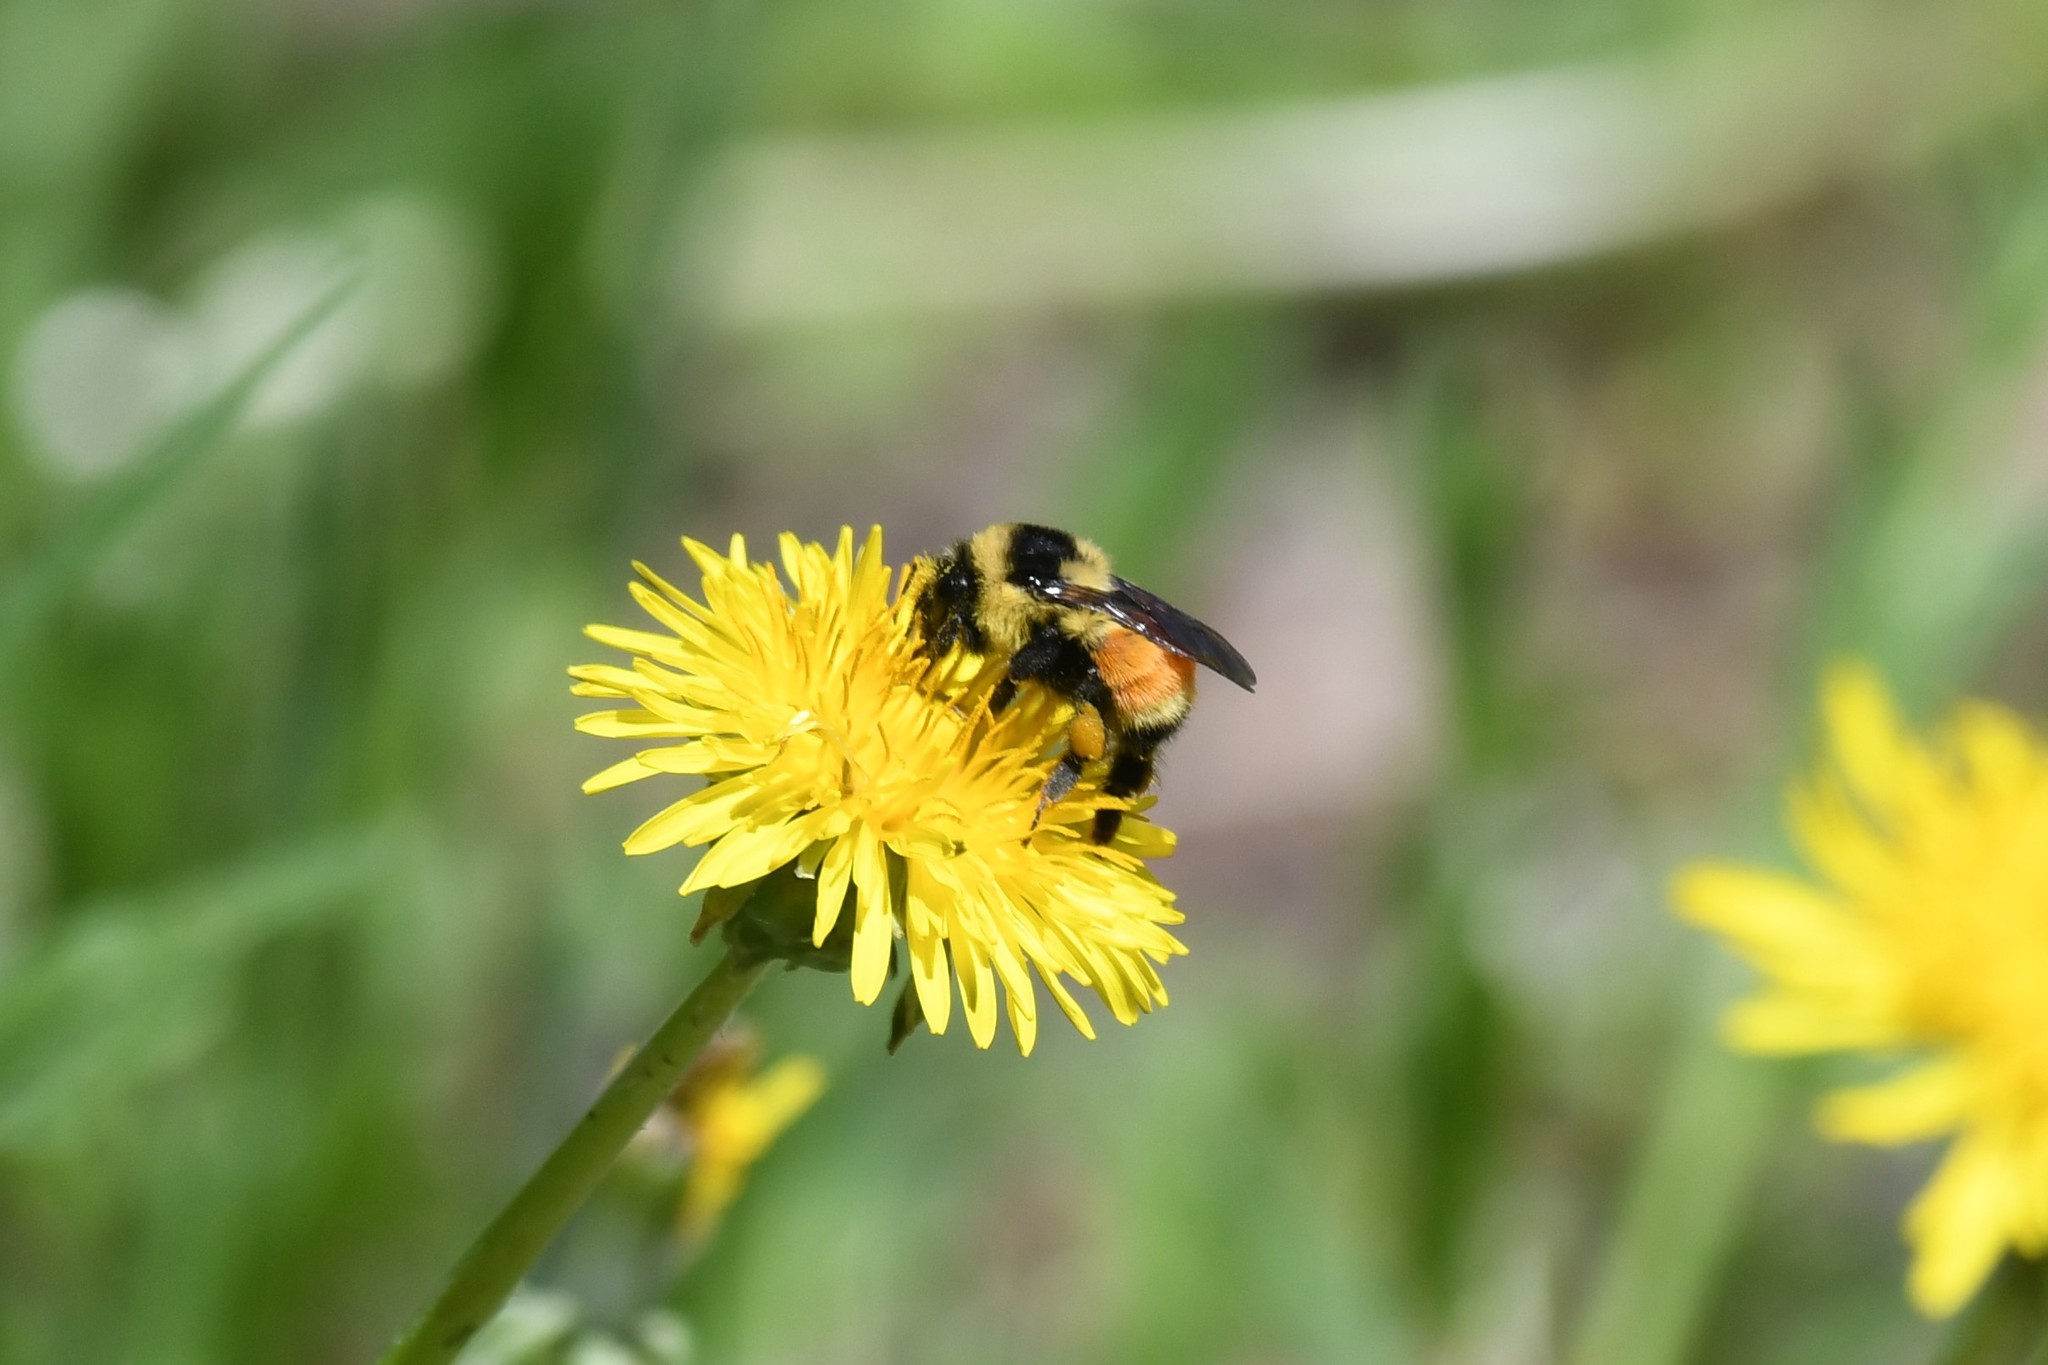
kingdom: Animalia
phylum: Arthropoda
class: Insecta
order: Hymenoptera
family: Apidae
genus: Bombus
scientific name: Bombus ternarius
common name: Tri-colored bumble bee
